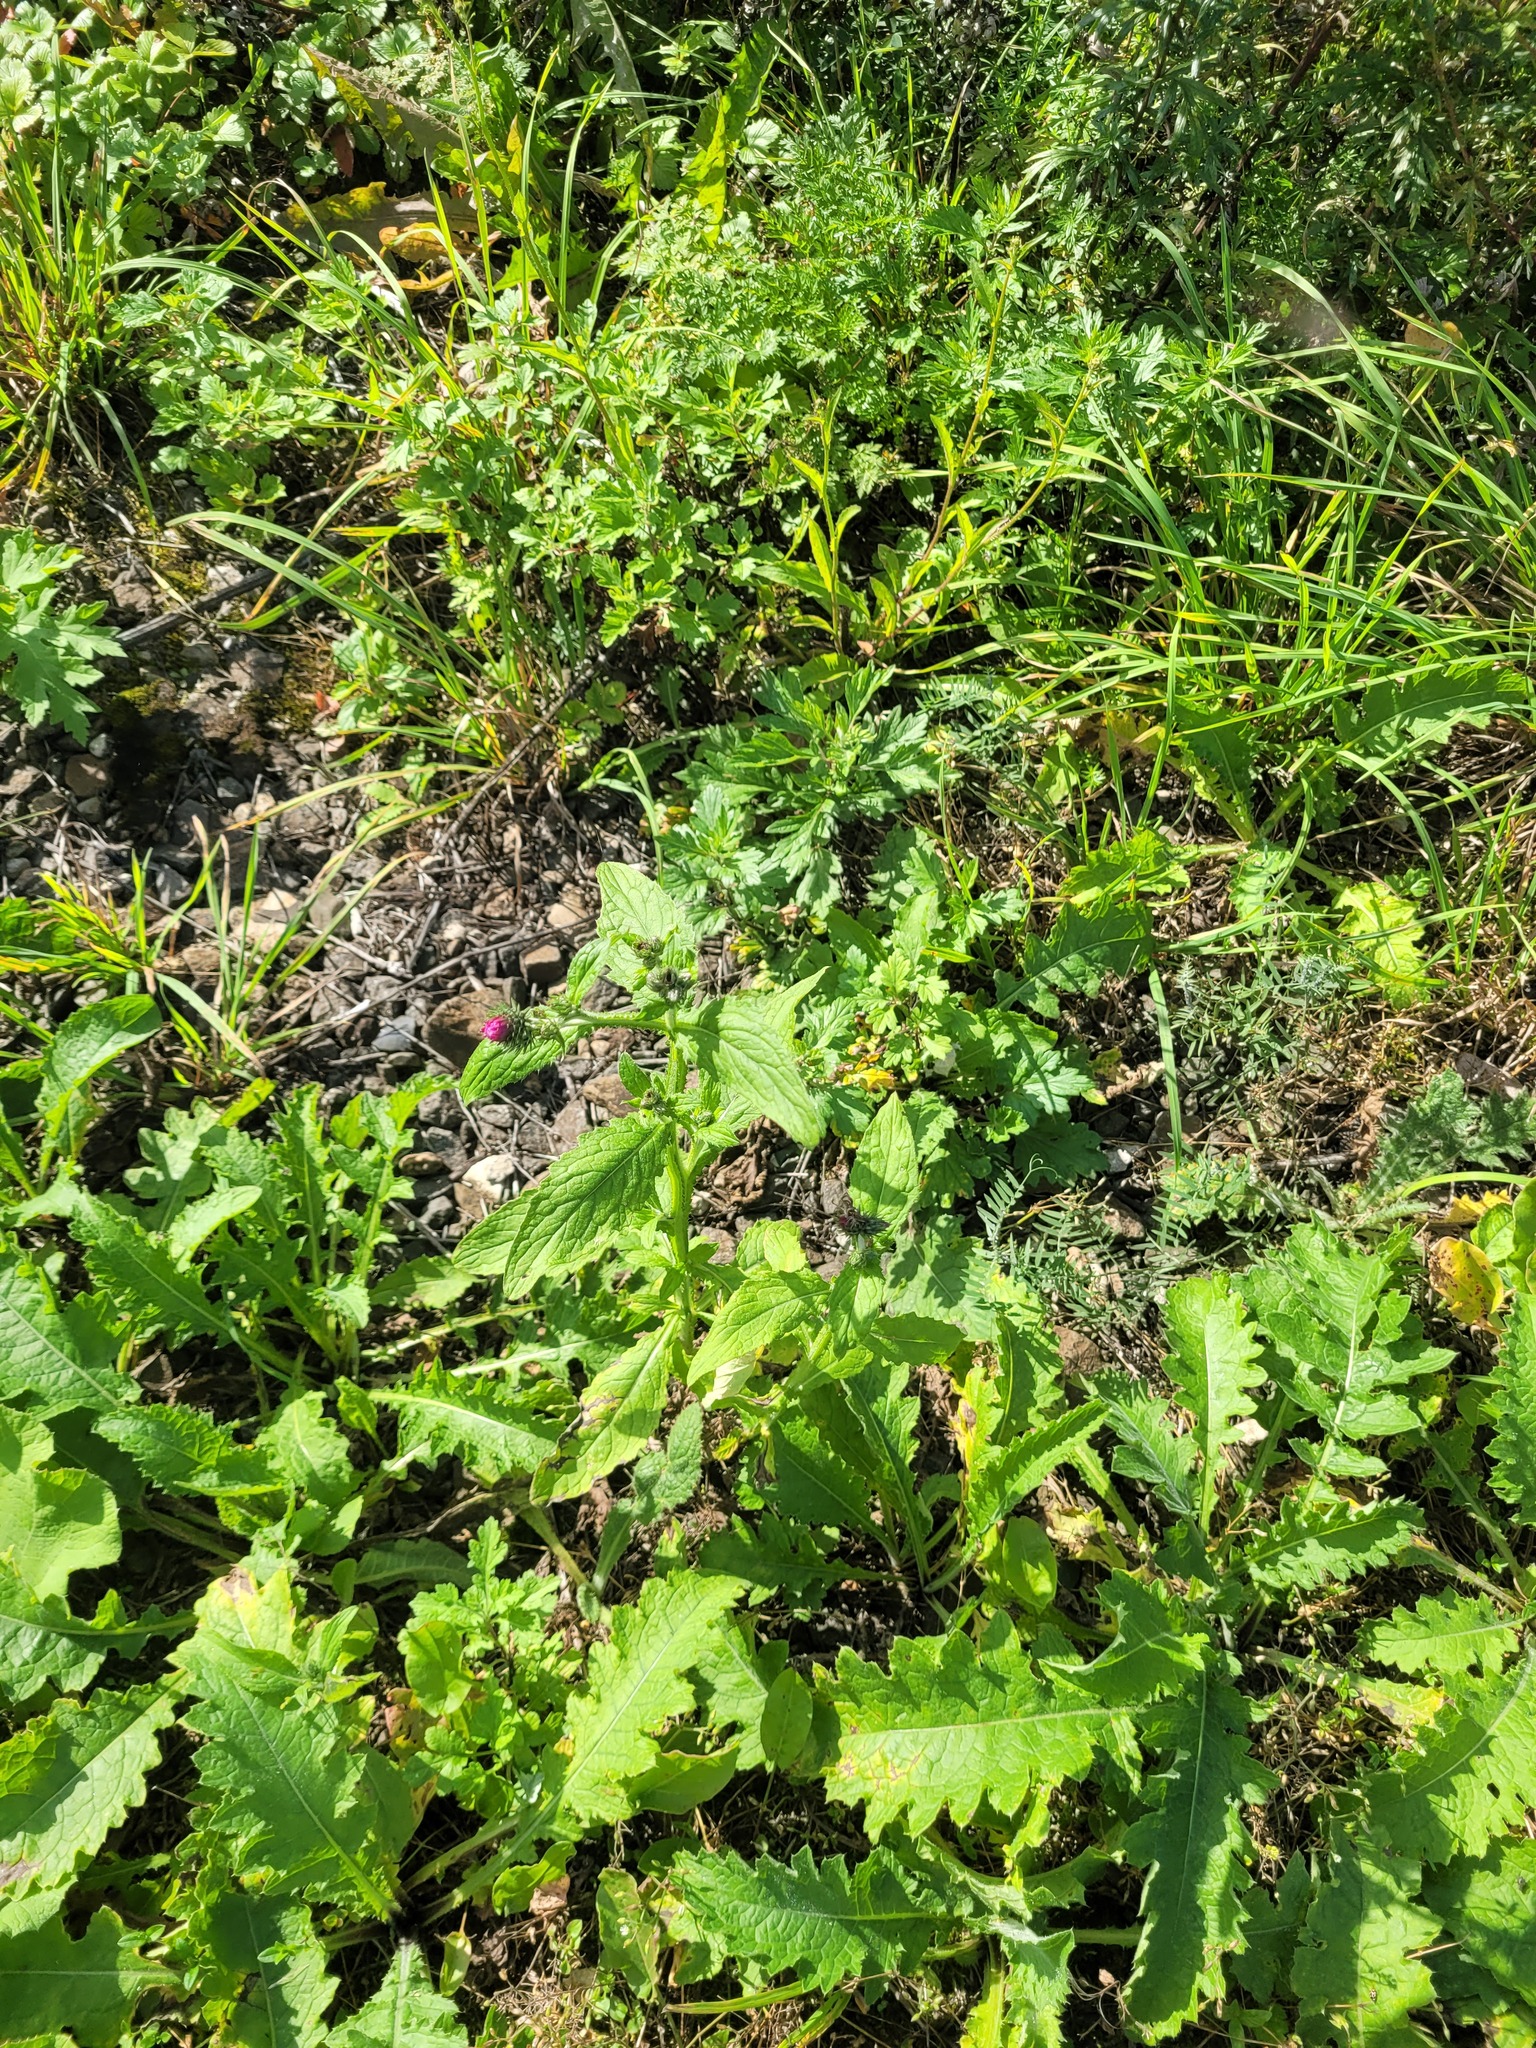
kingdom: Plantae
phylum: Tracheophyta
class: Magnoliopsida
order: Asterales
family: Asteraceae
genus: Carduus
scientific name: Carduus crispus
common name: Welted thistle
